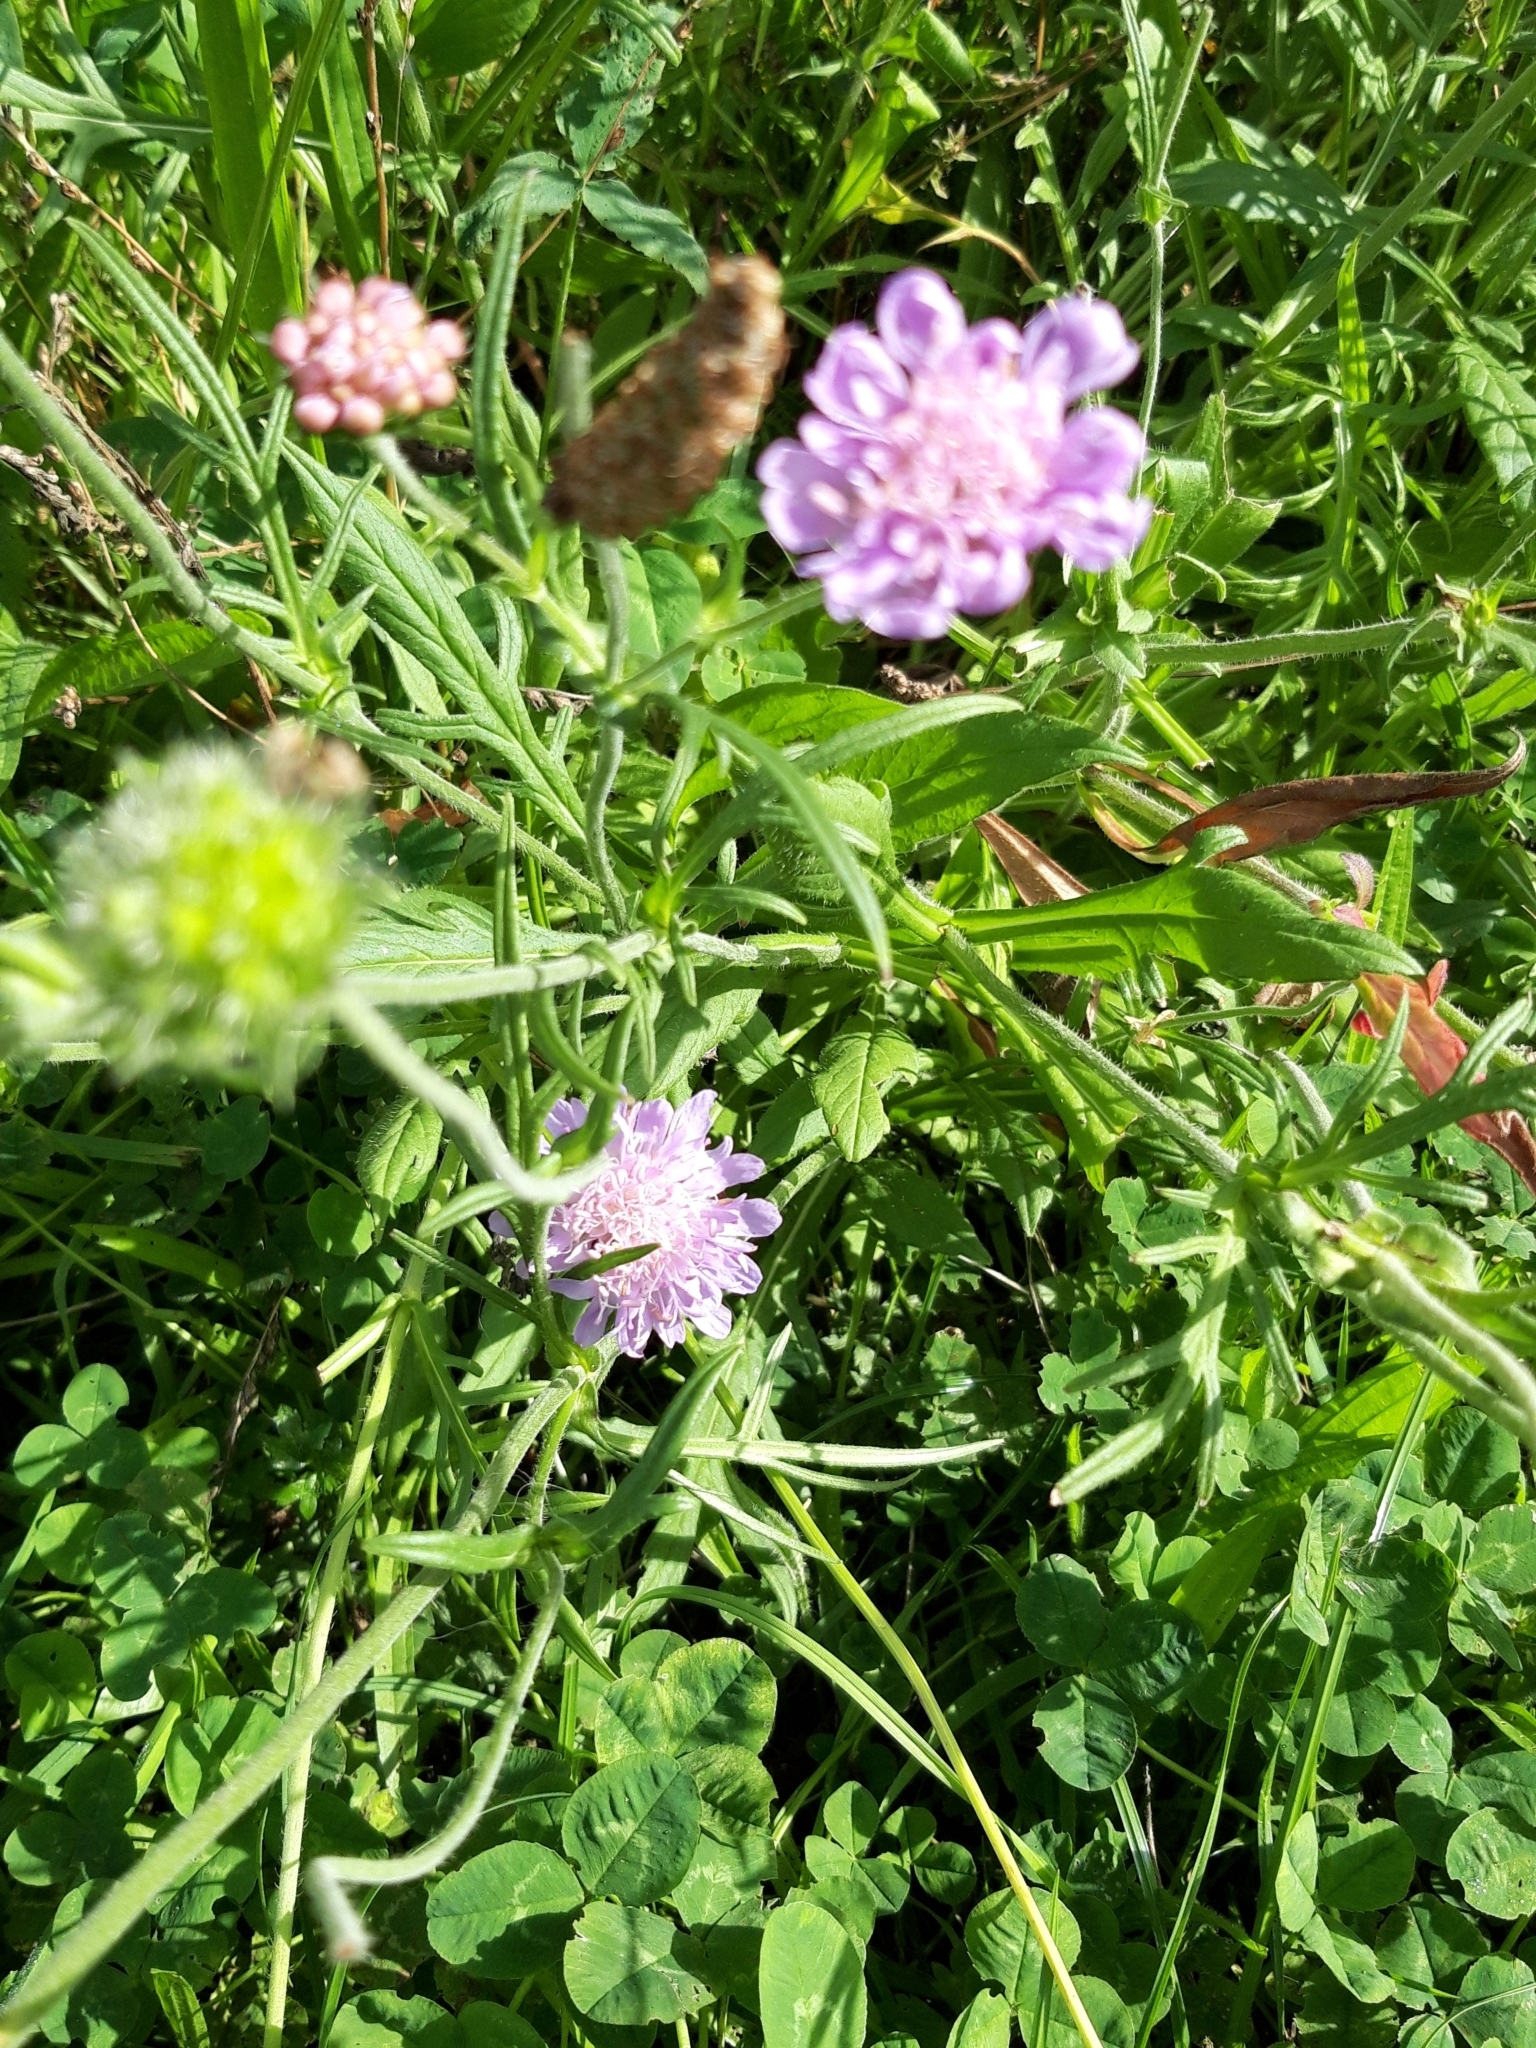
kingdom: Plantae
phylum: Tracheophyta
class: Magnoliopsida
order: Dipsacales
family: Caprifoliaceae
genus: Knautia
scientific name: Knautia arvensis
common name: Field scabiosa
